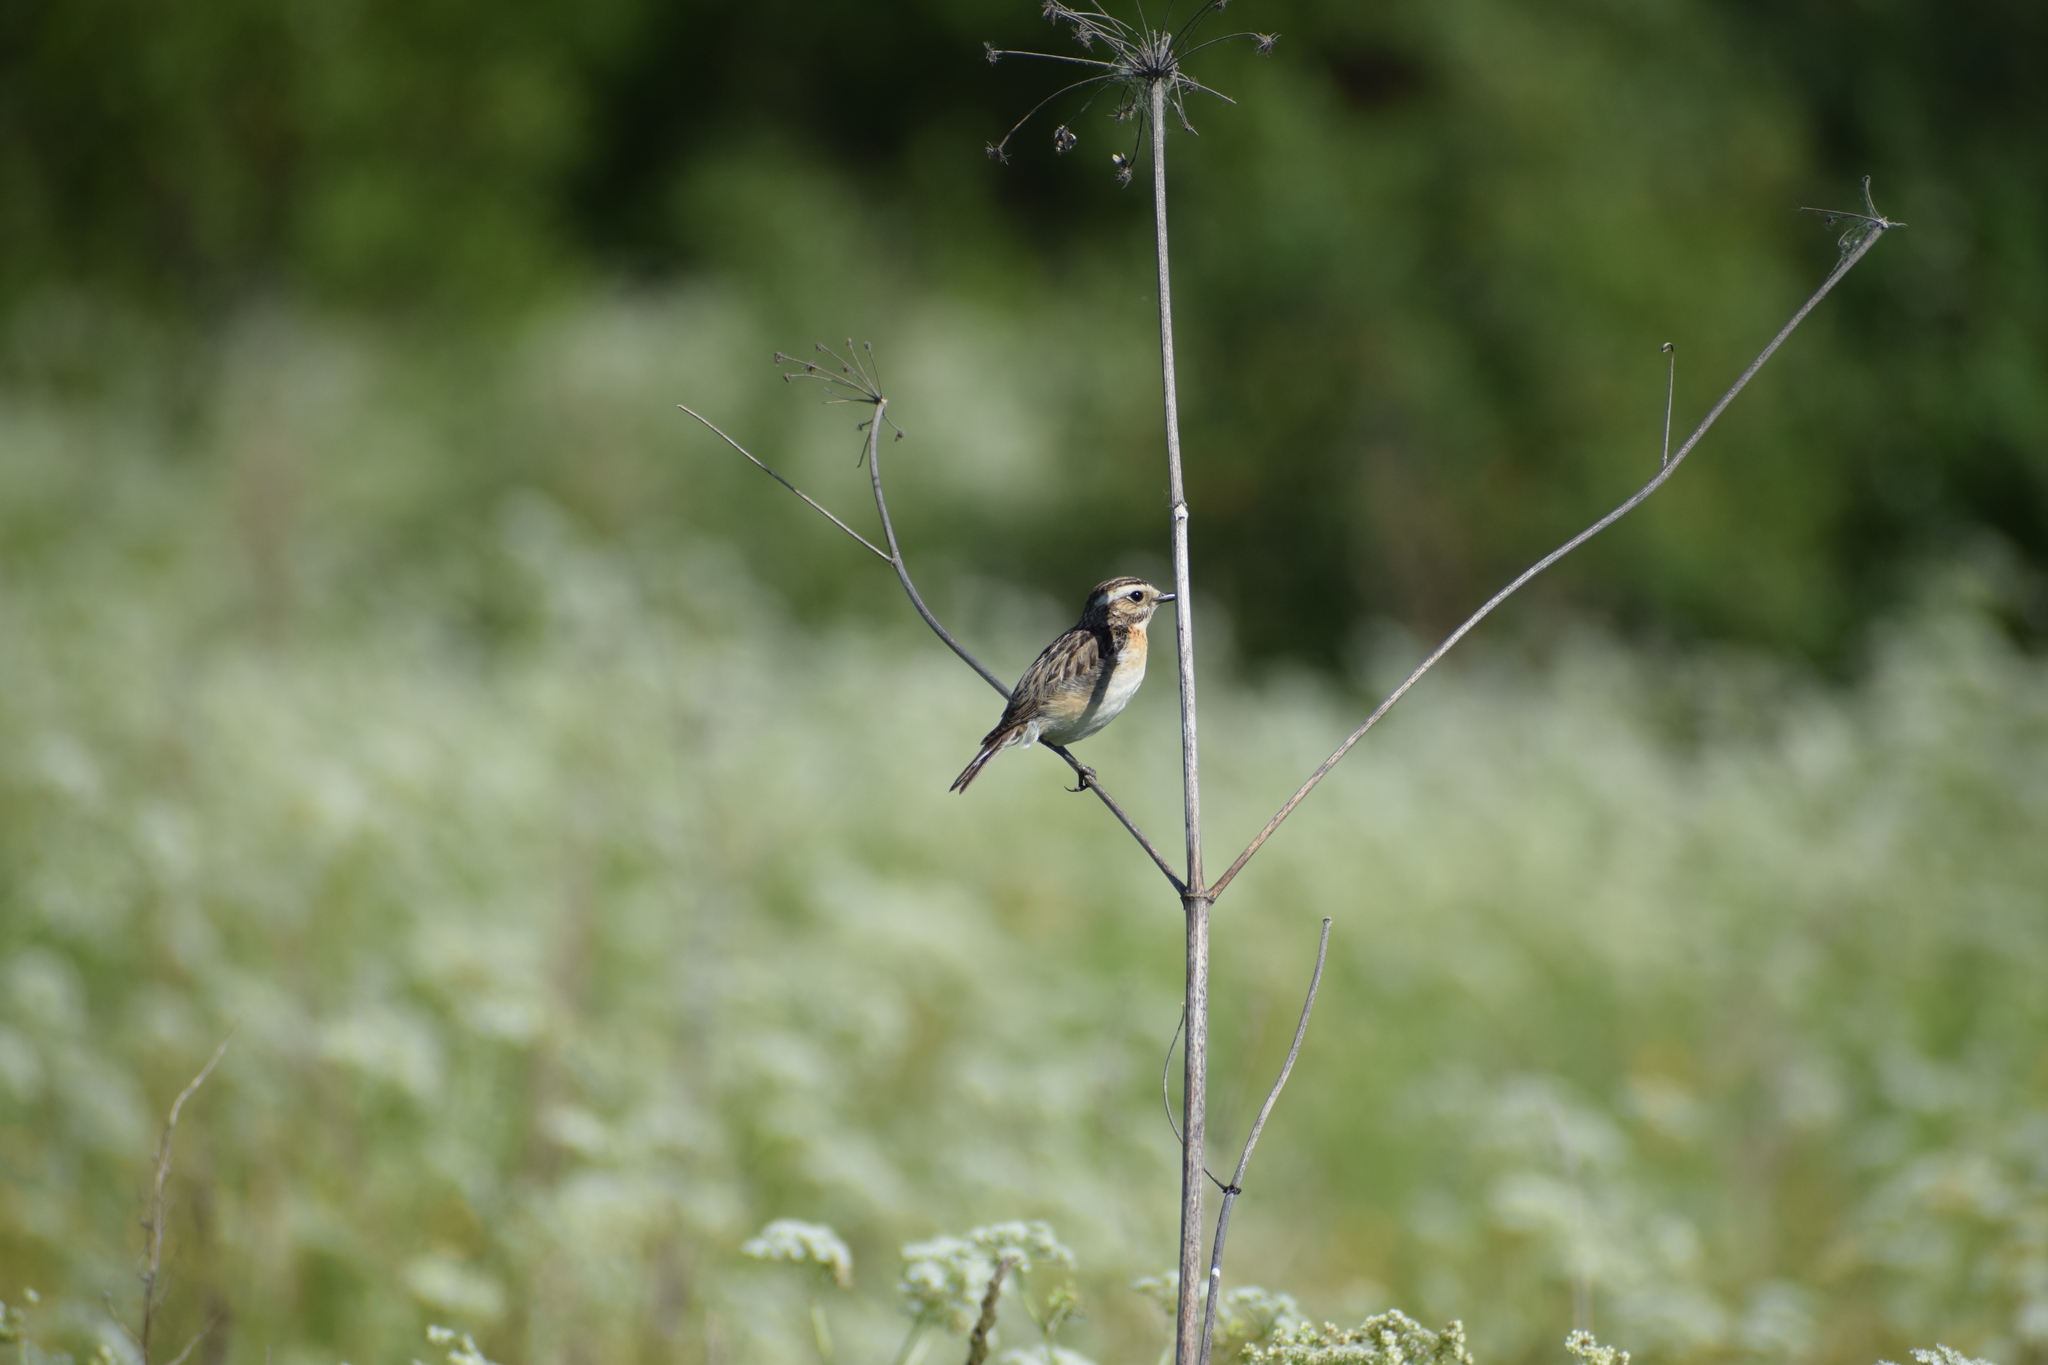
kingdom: Animalia
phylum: Chordata
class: Aves
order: Passeriformes
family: Muscicapidae
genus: Saxicola
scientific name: Saxicola rubetra
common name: Whinchat
